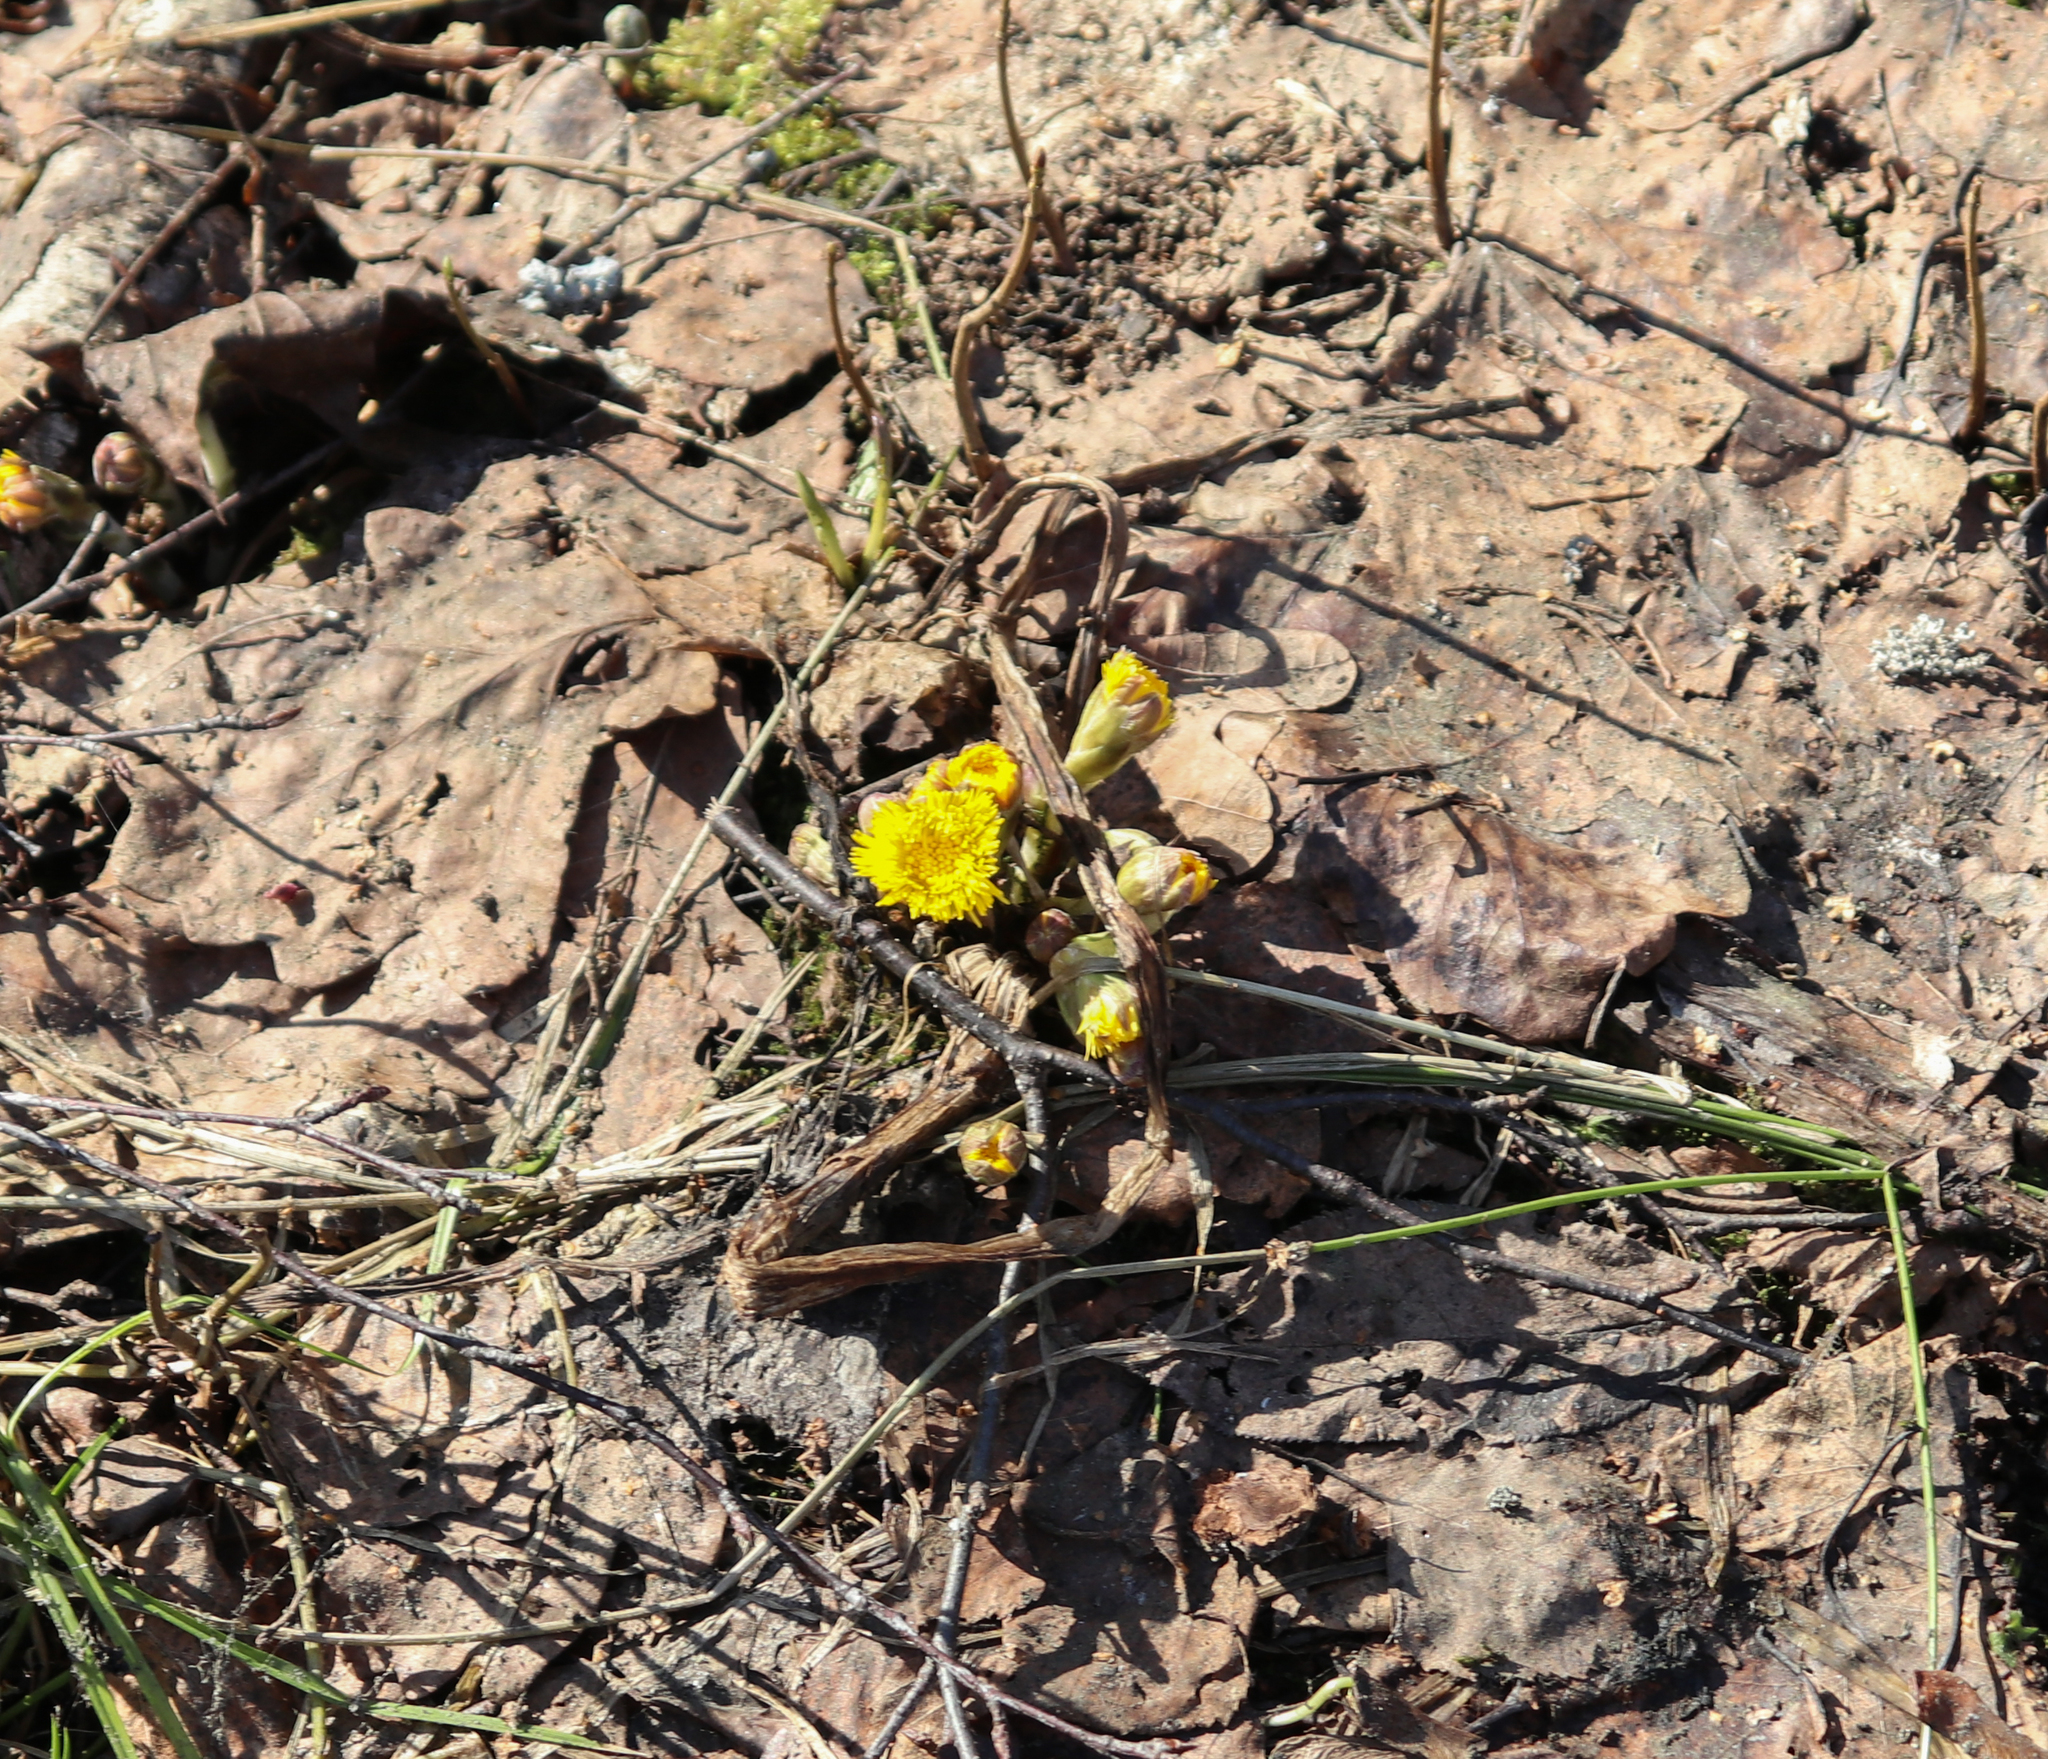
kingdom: Plantae
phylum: Tracheophyta
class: Magnoliopsida
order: Asterales
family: Asteraceae
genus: Tussilago
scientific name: Tussilago farfara
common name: Coltsfoot
